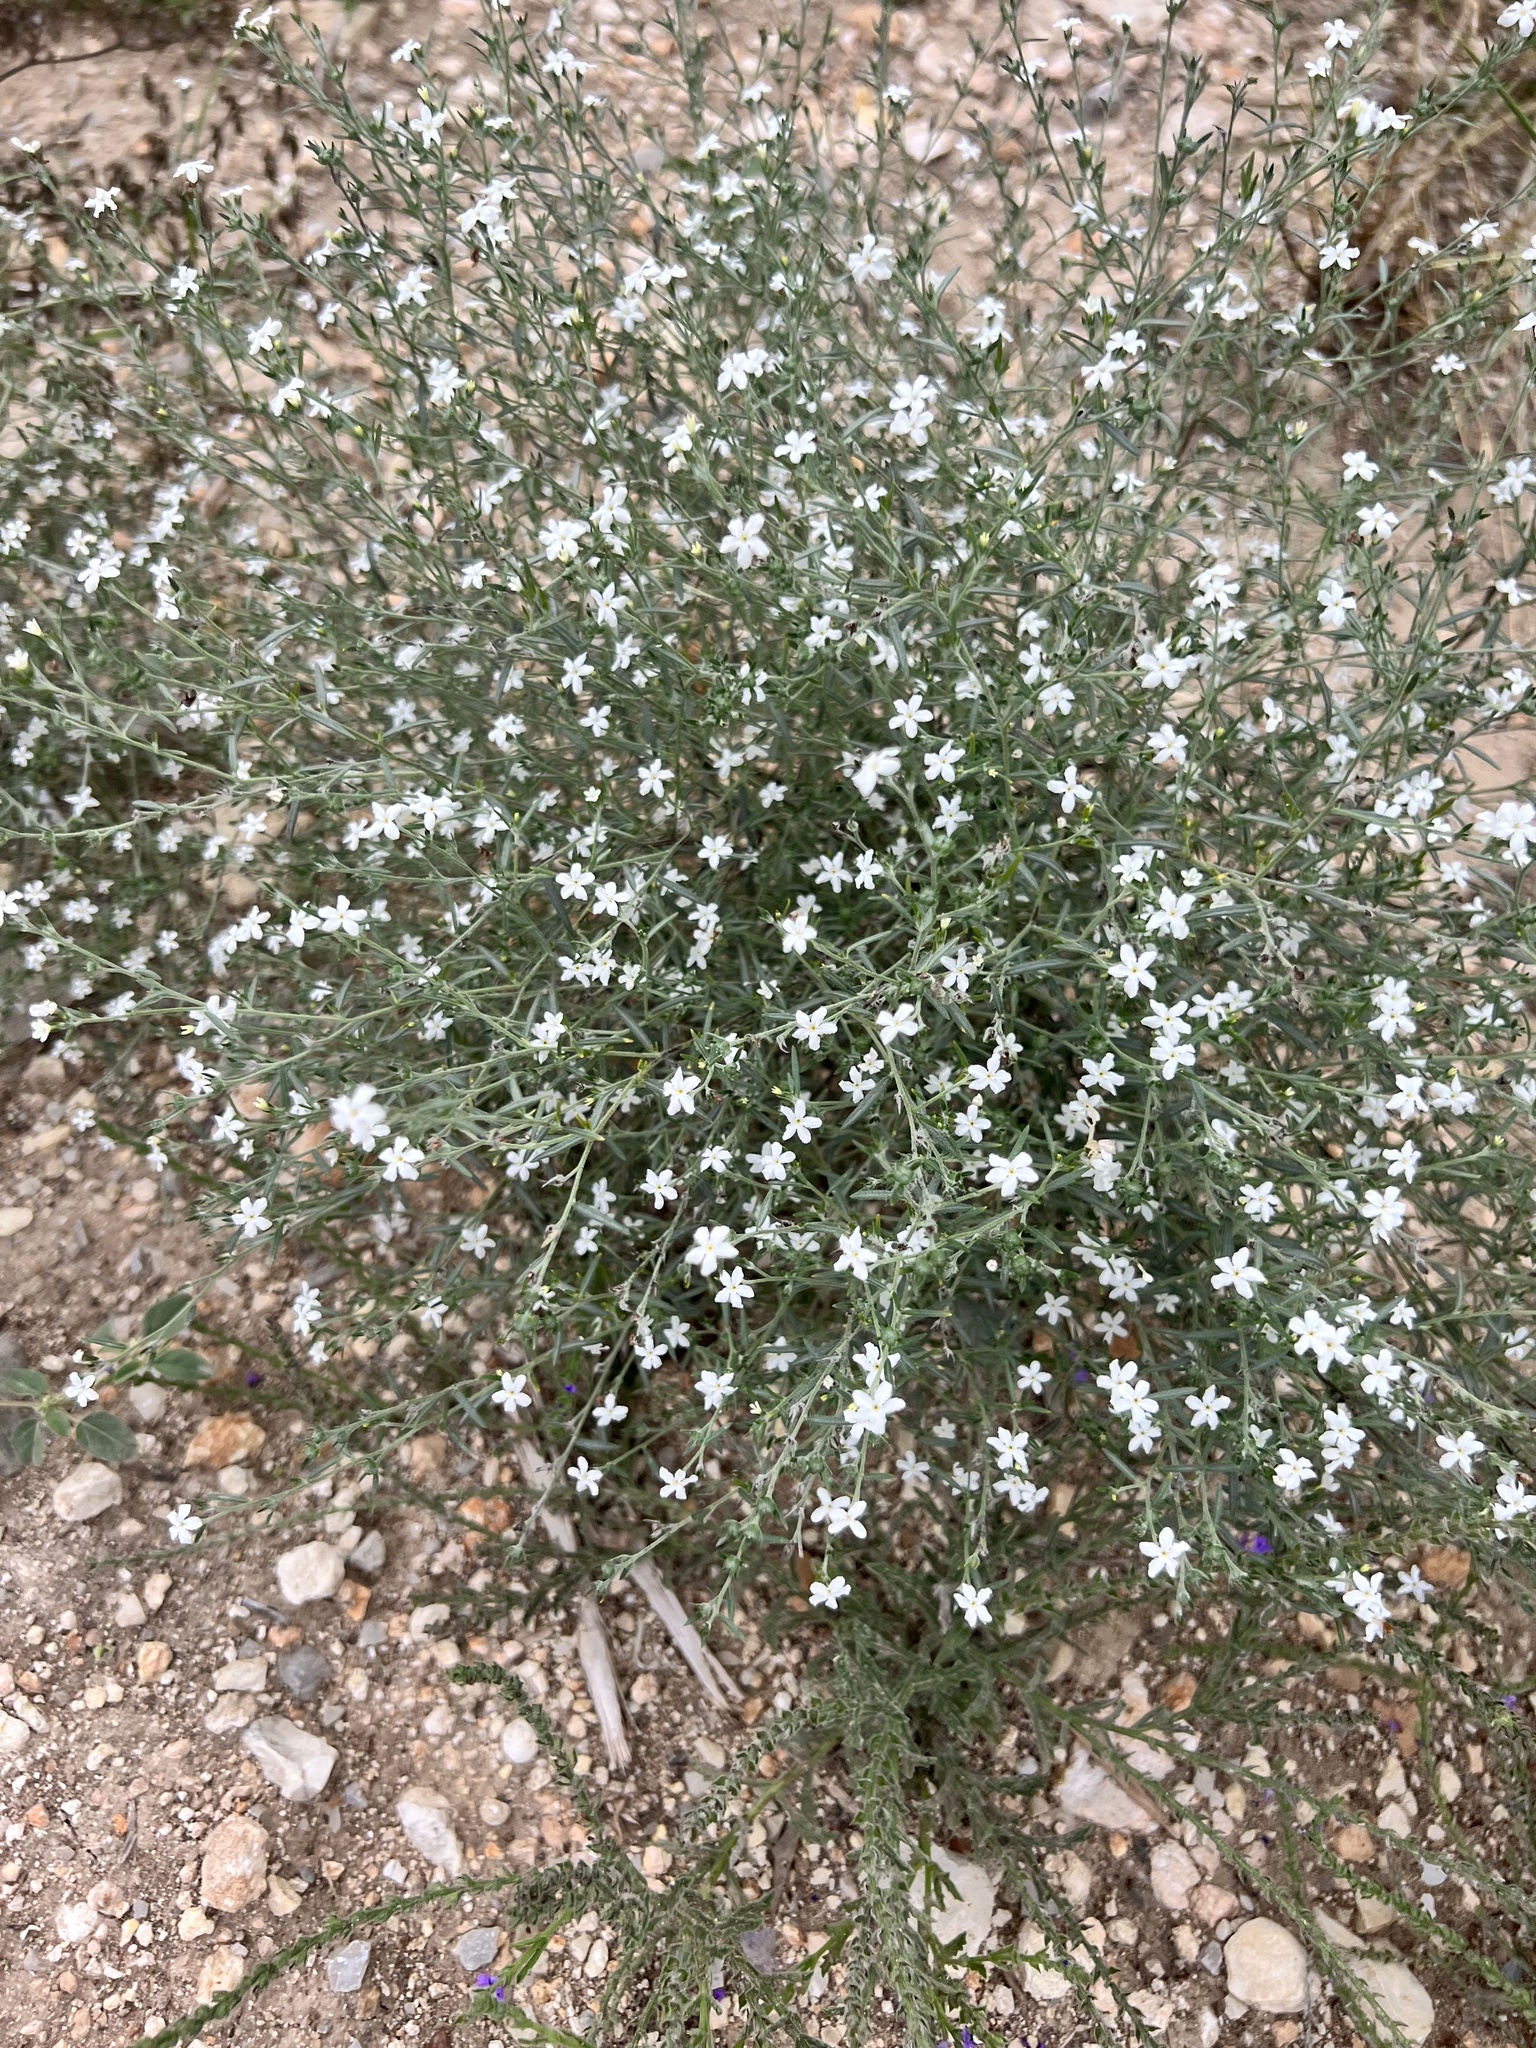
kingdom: Plantae
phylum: Tracheophyta
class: Magnoliopsida
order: Boraginales
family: Heliotropiaceae
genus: Euploca
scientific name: Euploca tenella
